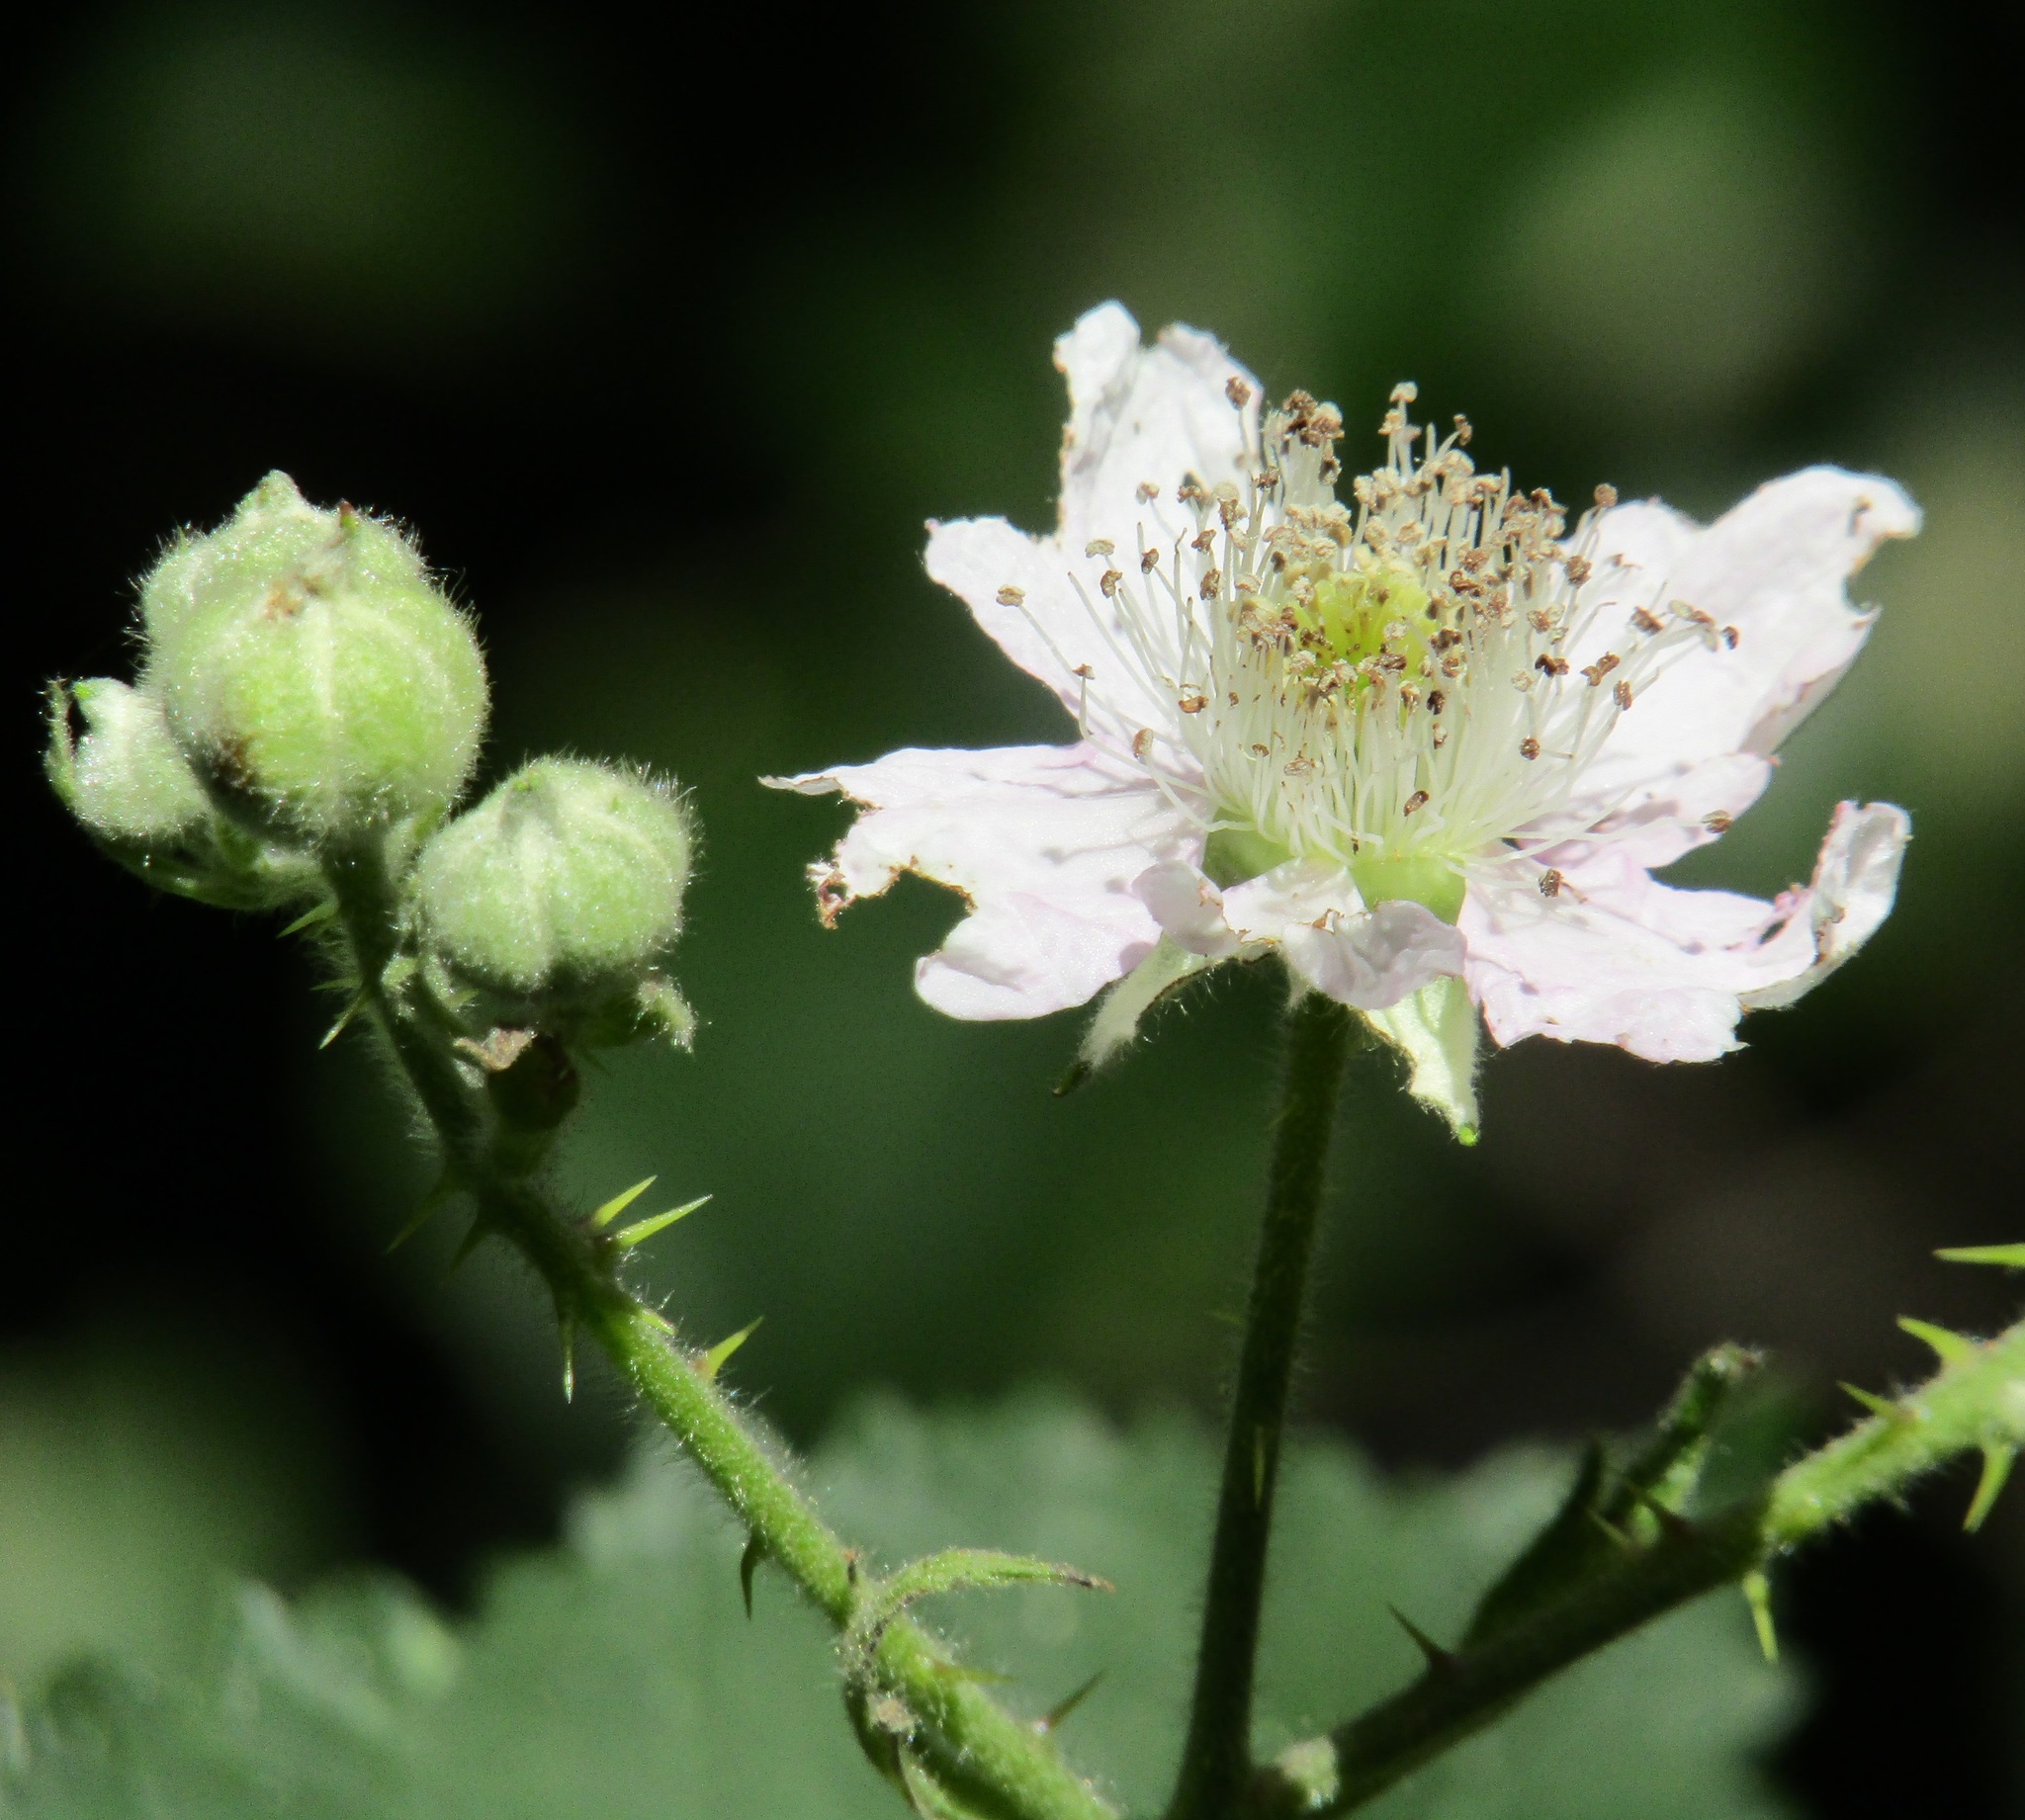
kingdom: Plantae
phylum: Tracheophyta
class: Magnoliopsida
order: Rosales
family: Rosaceae
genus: Rubus
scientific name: Rubus
